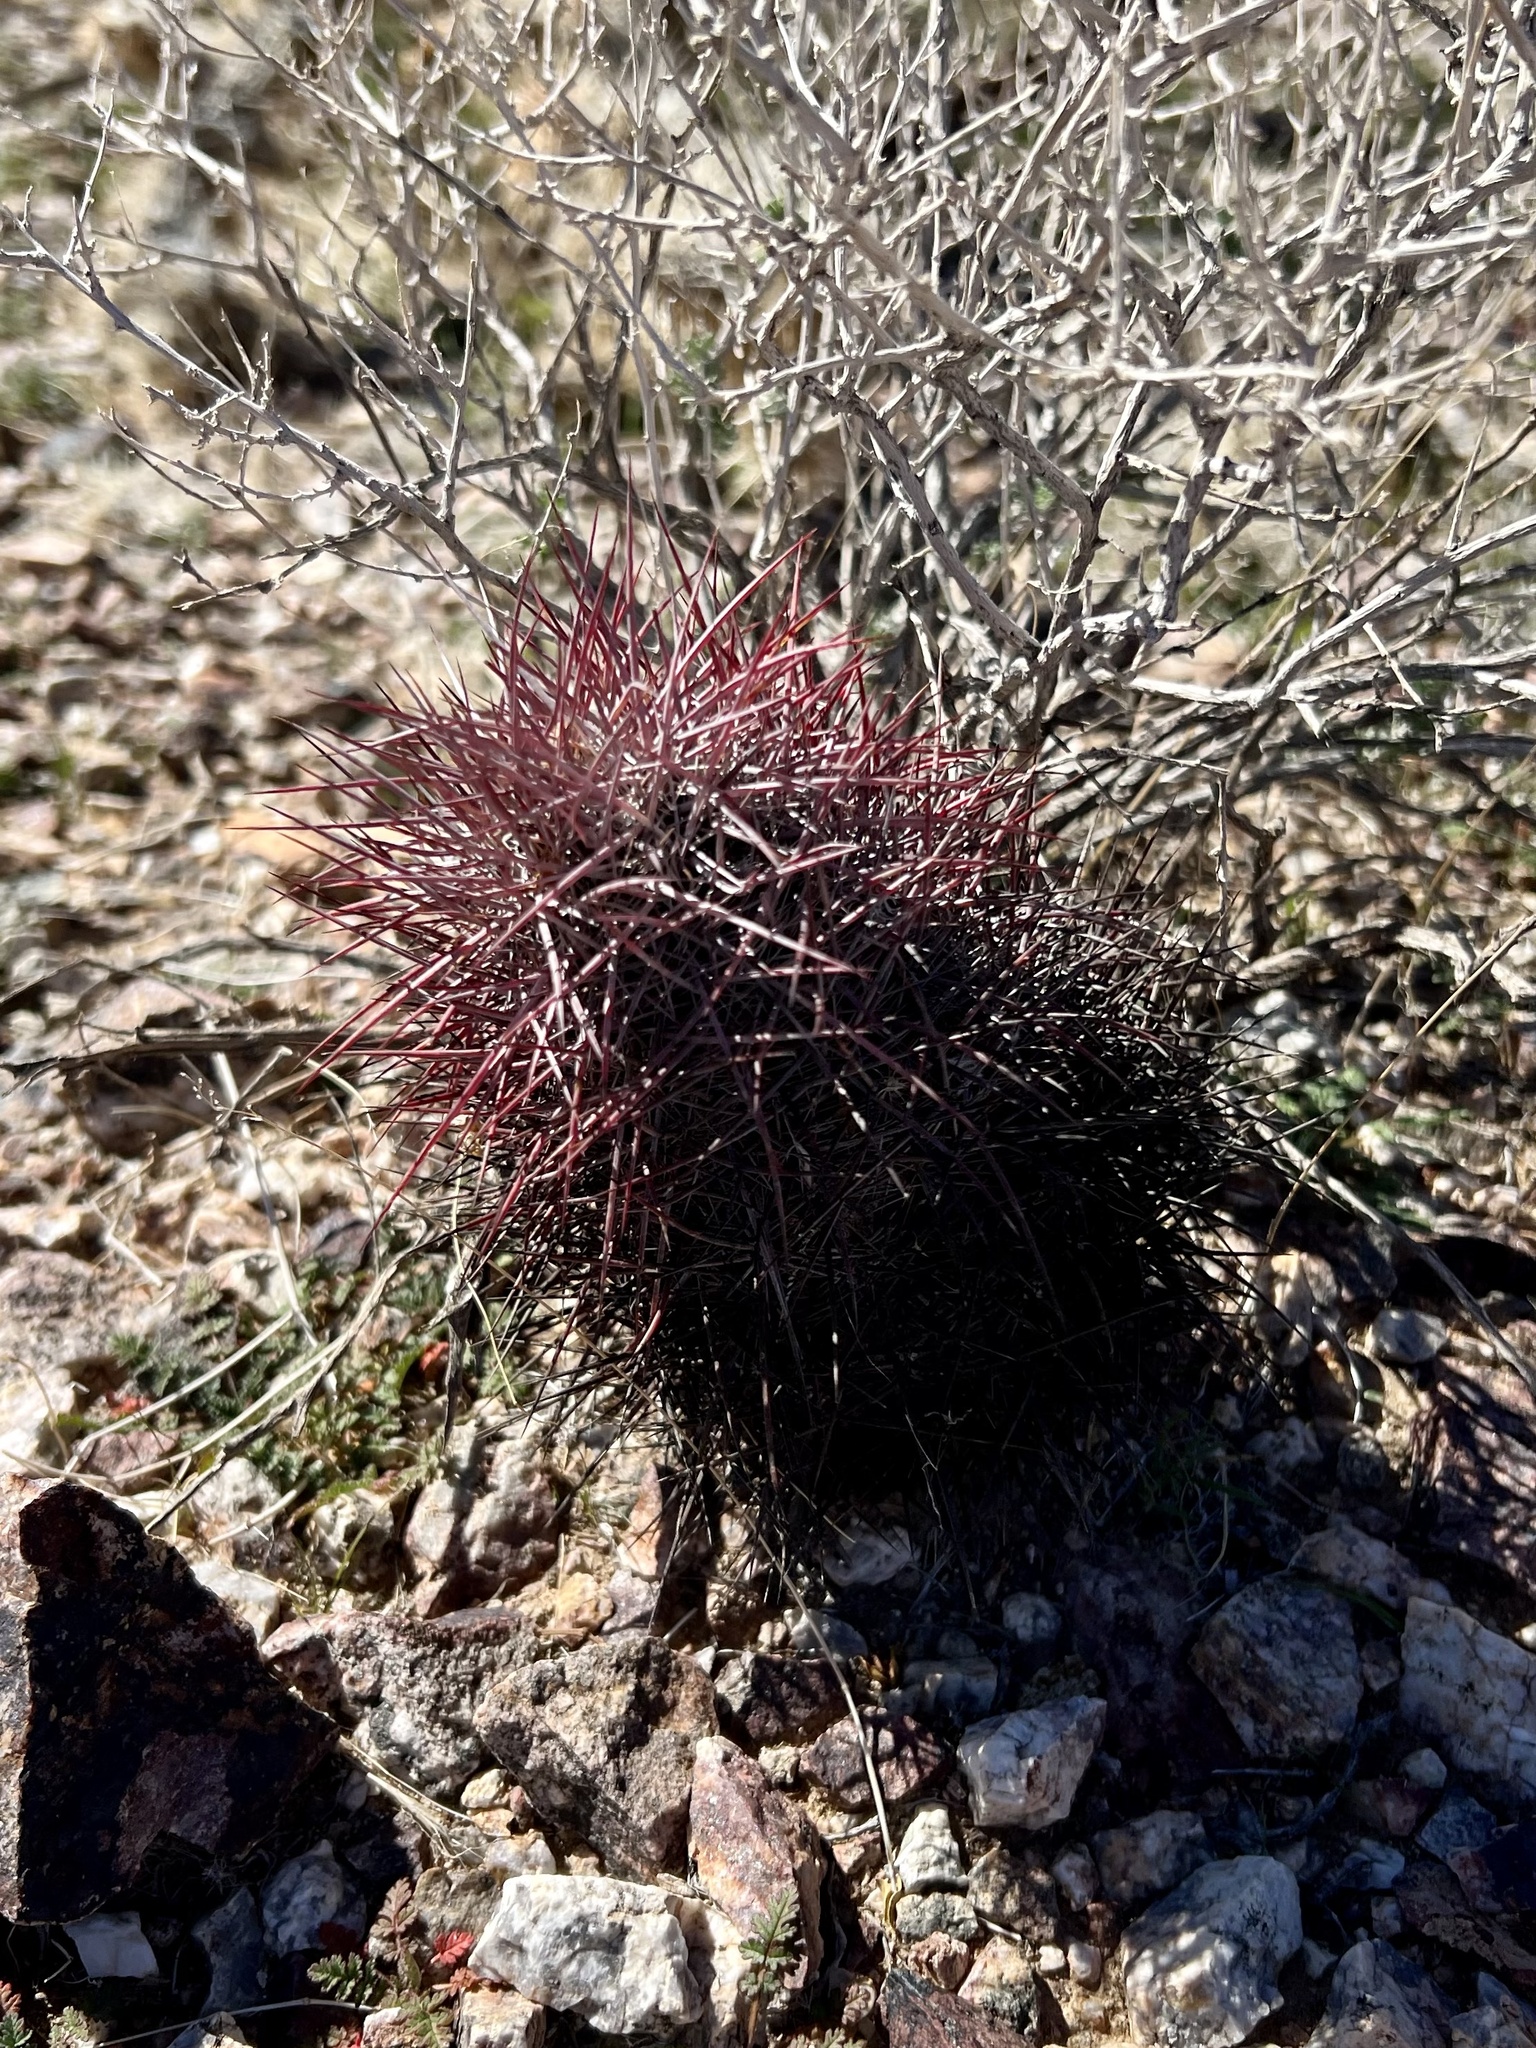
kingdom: Plantae
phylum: Tracheophyta
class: Magnoliopsida
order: Caryophyllales
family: Cactaceae
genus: Sclerocactus
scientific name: Sclerocactus johnsonii
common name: Eight-spine fishhook cactus
